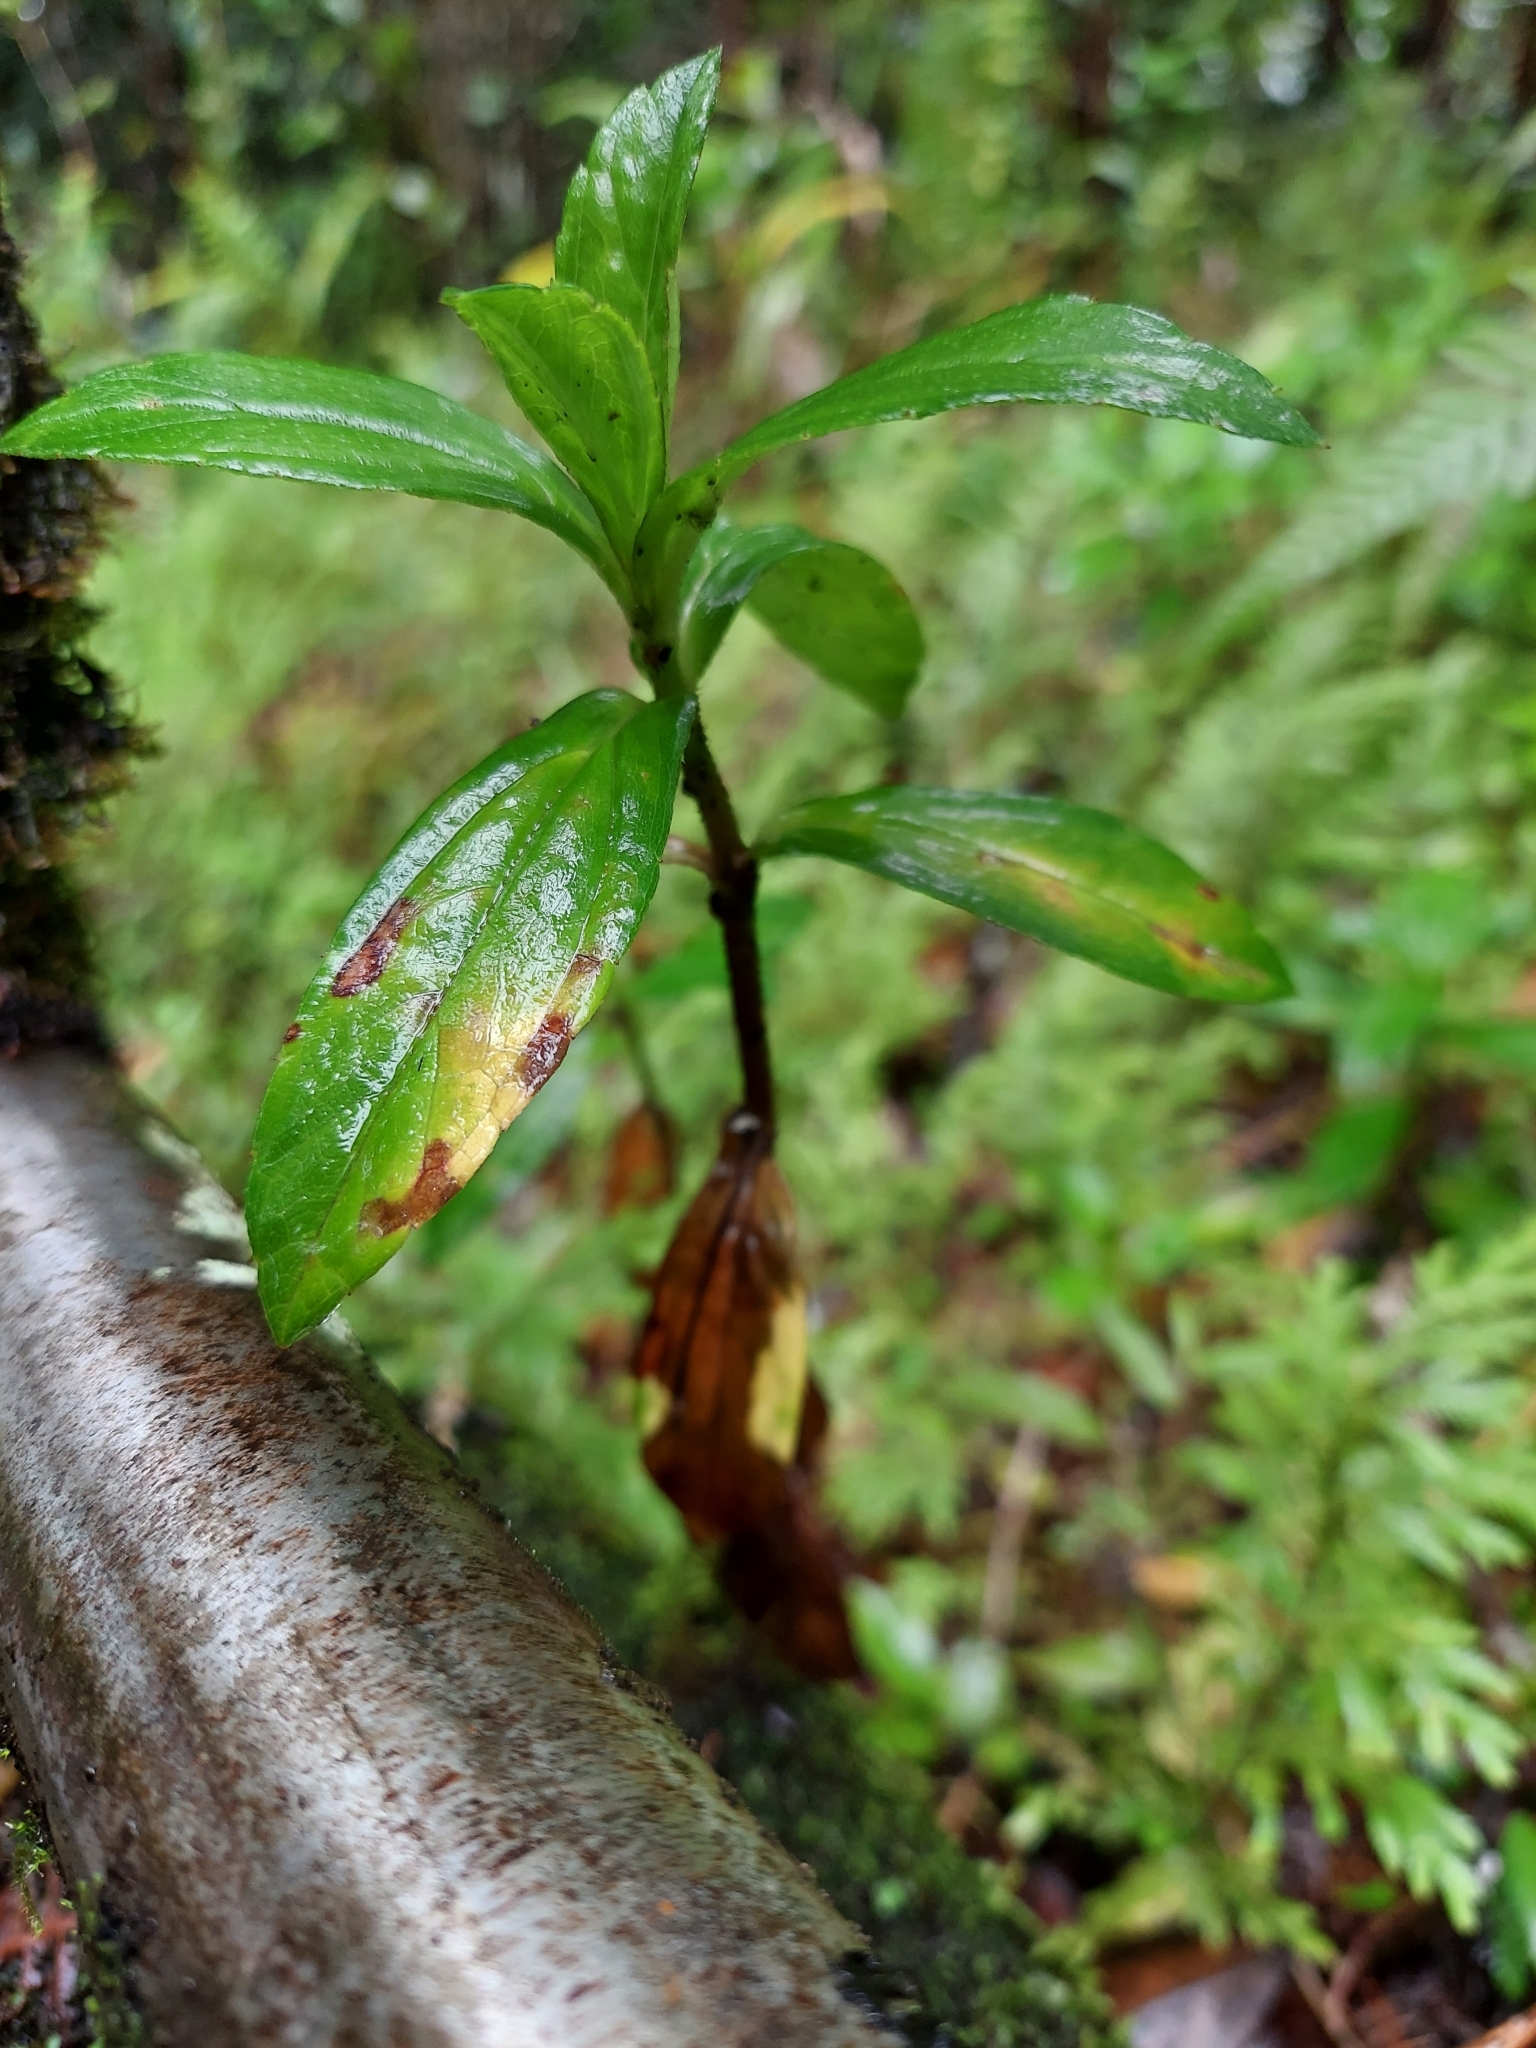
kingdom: Plantae
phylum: Tracheophyta
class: Magnoliopsida
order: Asterales
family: Asteraceae
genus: Sphagneticola
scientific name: Sphagneticola trilobata
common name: Bay biscayne creeping-oxeye
